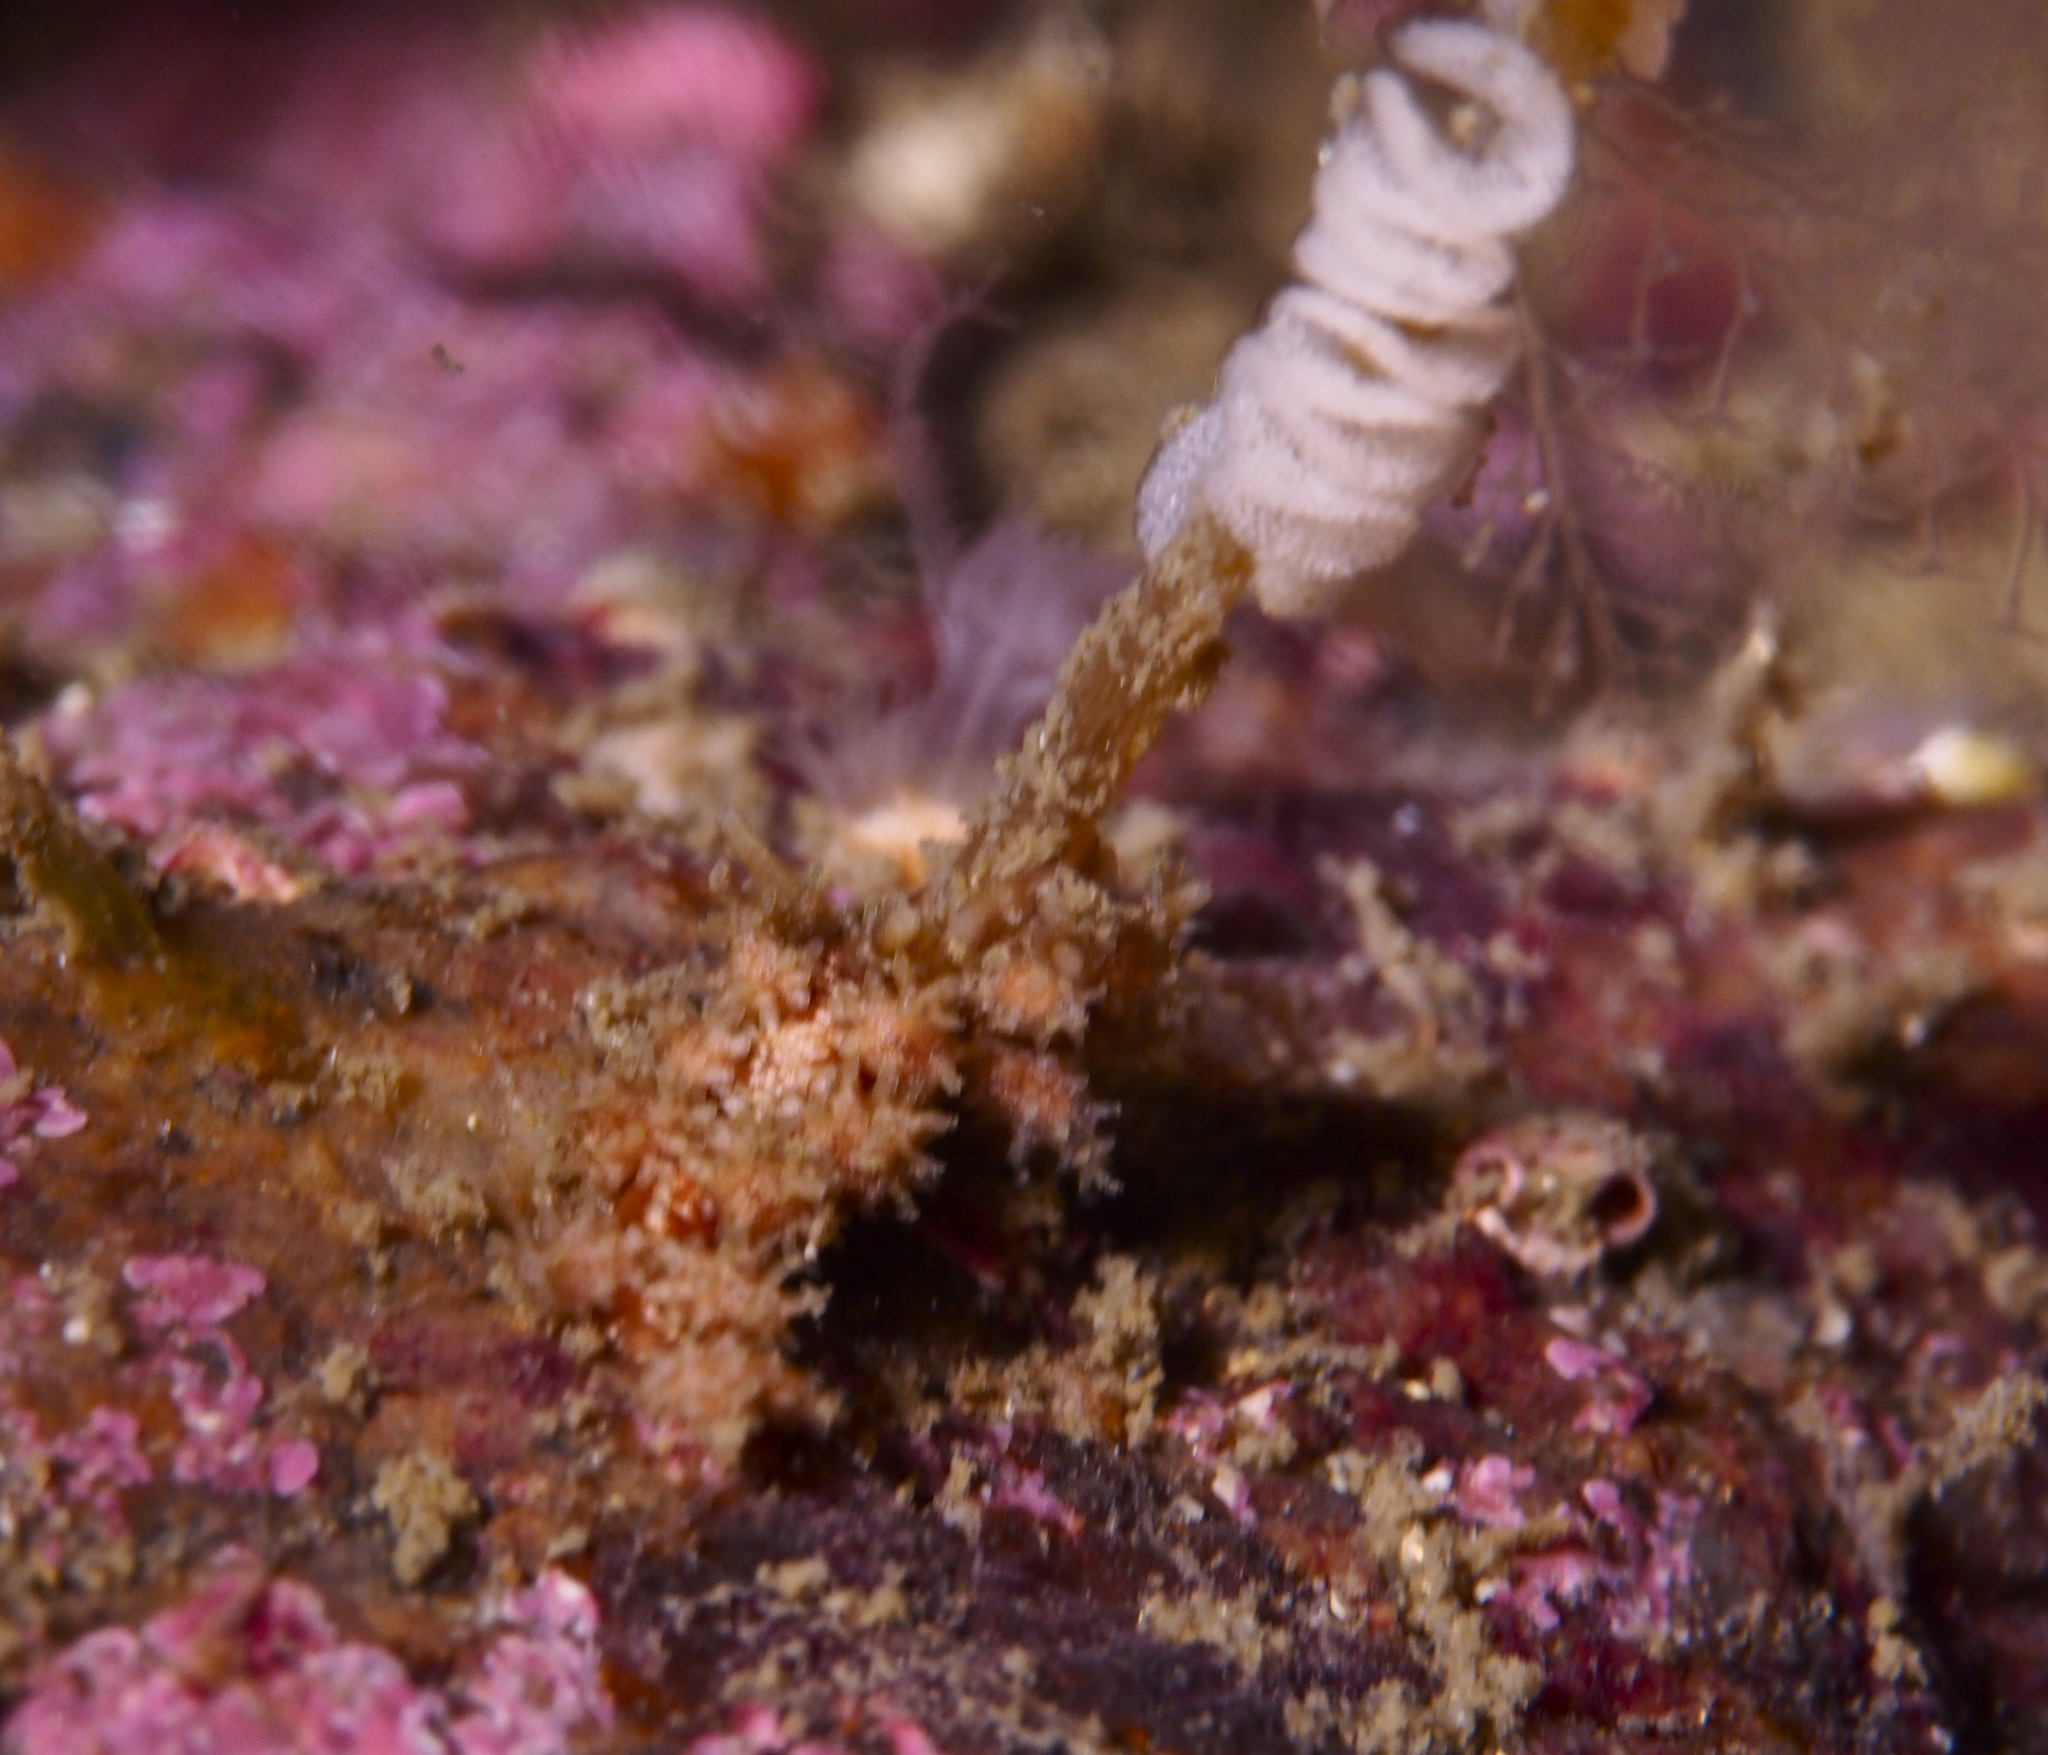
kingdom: Animalia
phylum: Mollusca
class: Gastropoda
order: Nudibranchia
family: Dotidae
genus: Doto
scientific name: Doto hystrix
